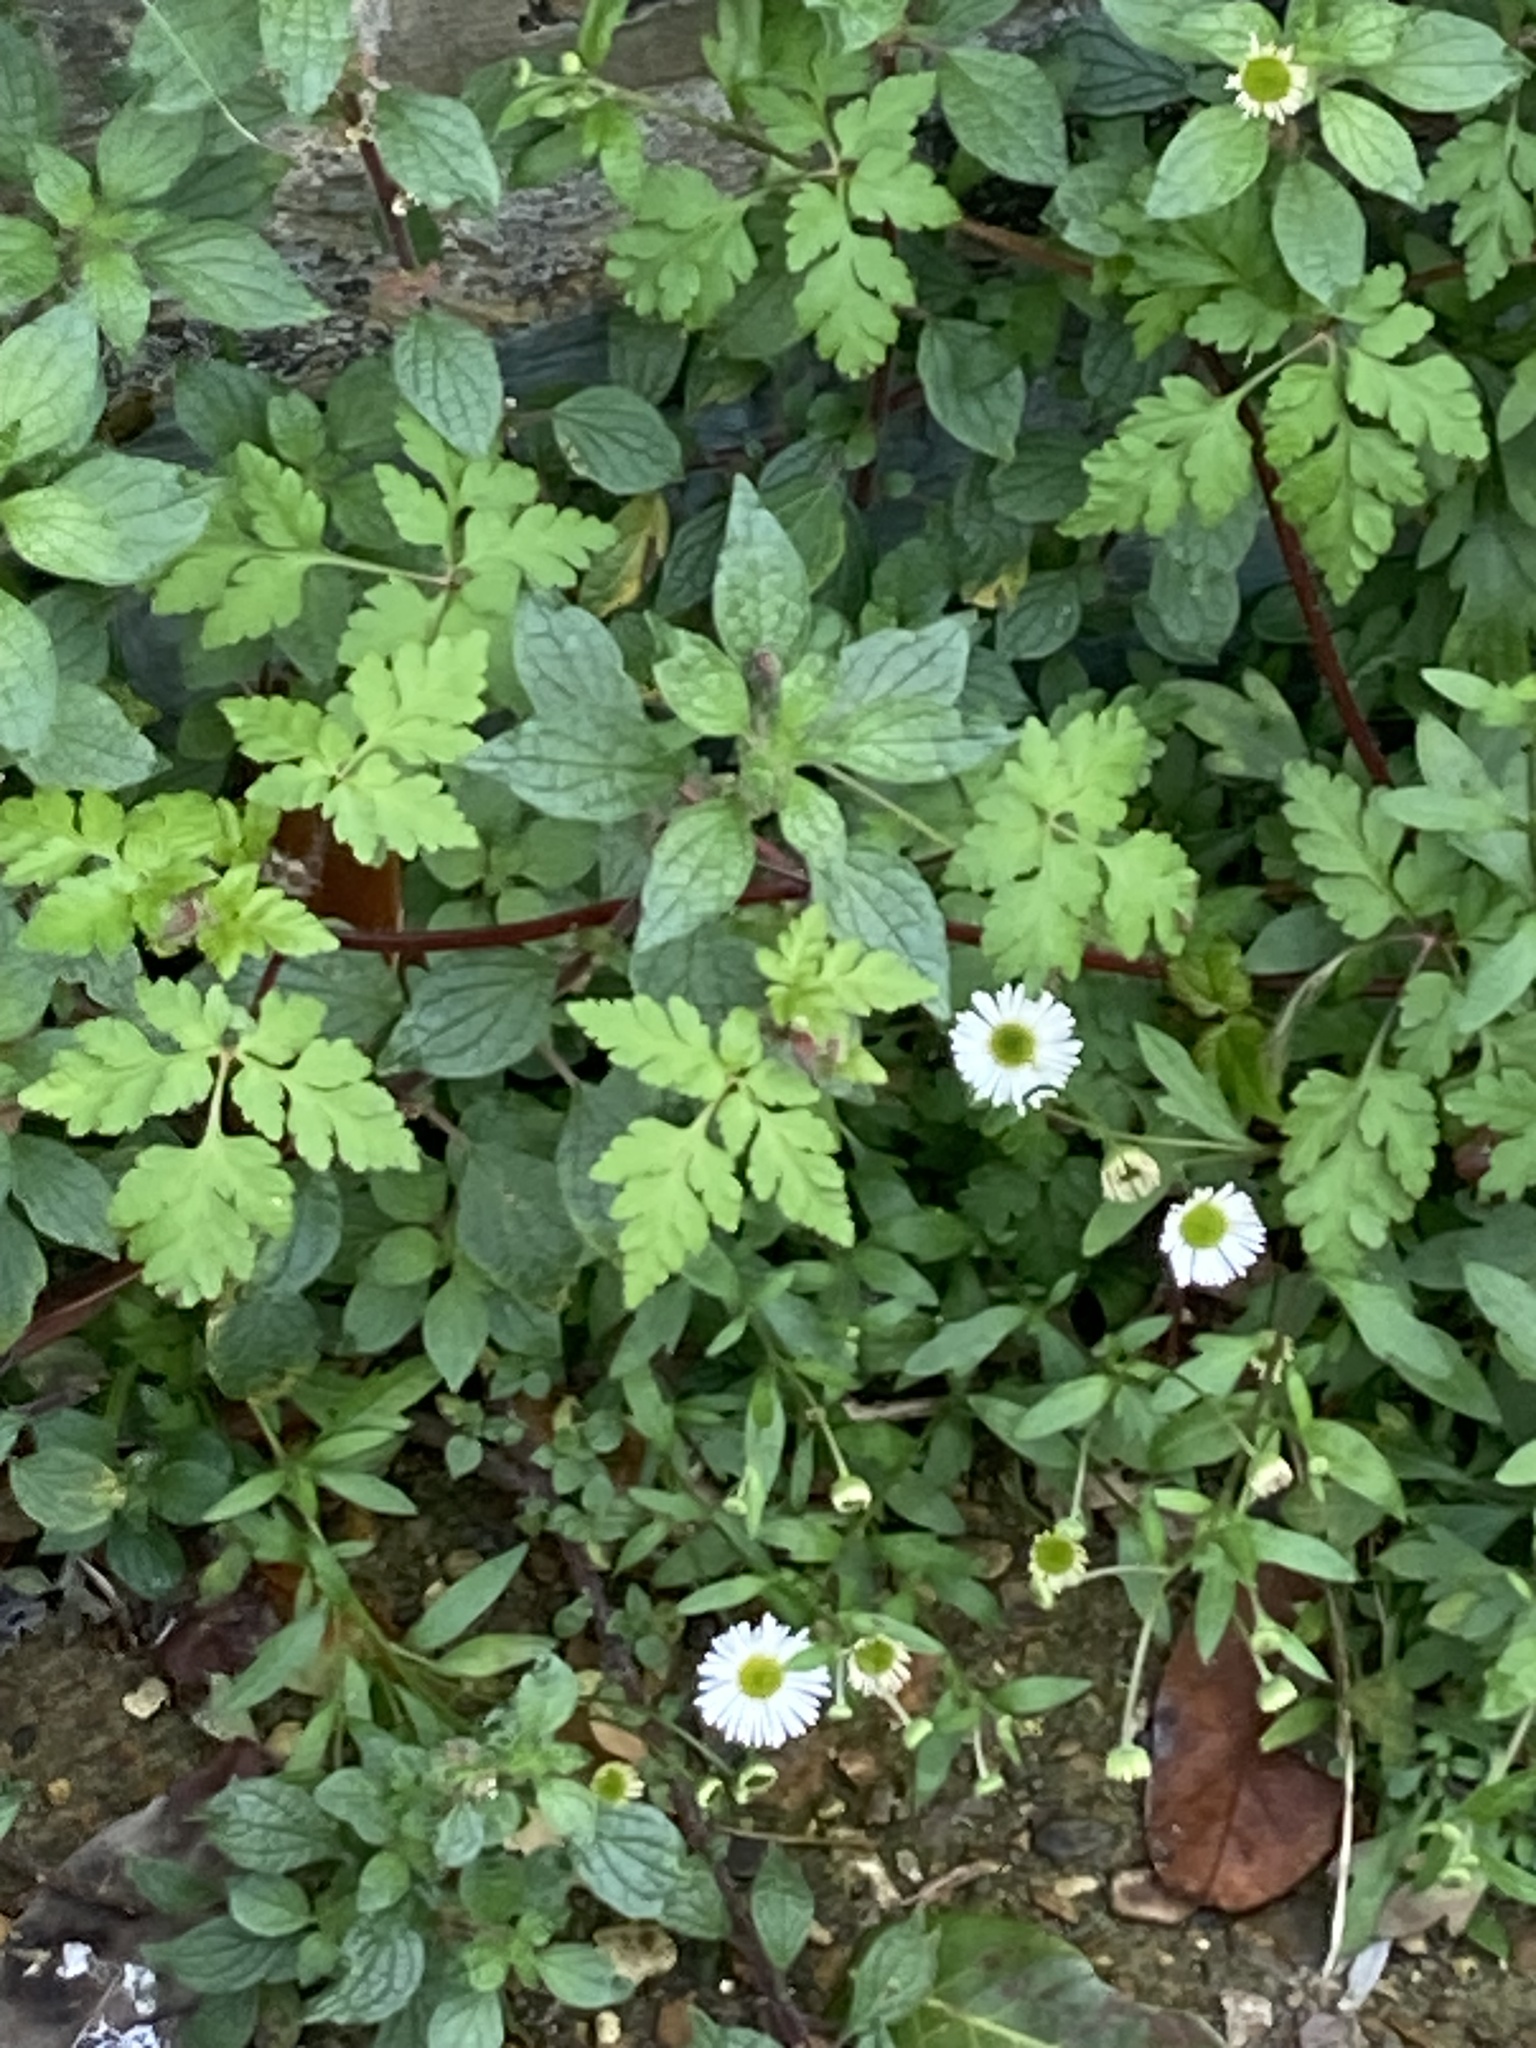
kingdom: Plantae
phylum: Tracheophyta
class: Magnoliopsida
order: Asterales
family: Asteraceae
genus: Erigeron
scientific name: Erigeron karvinskianus
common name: Mexican fleabane
